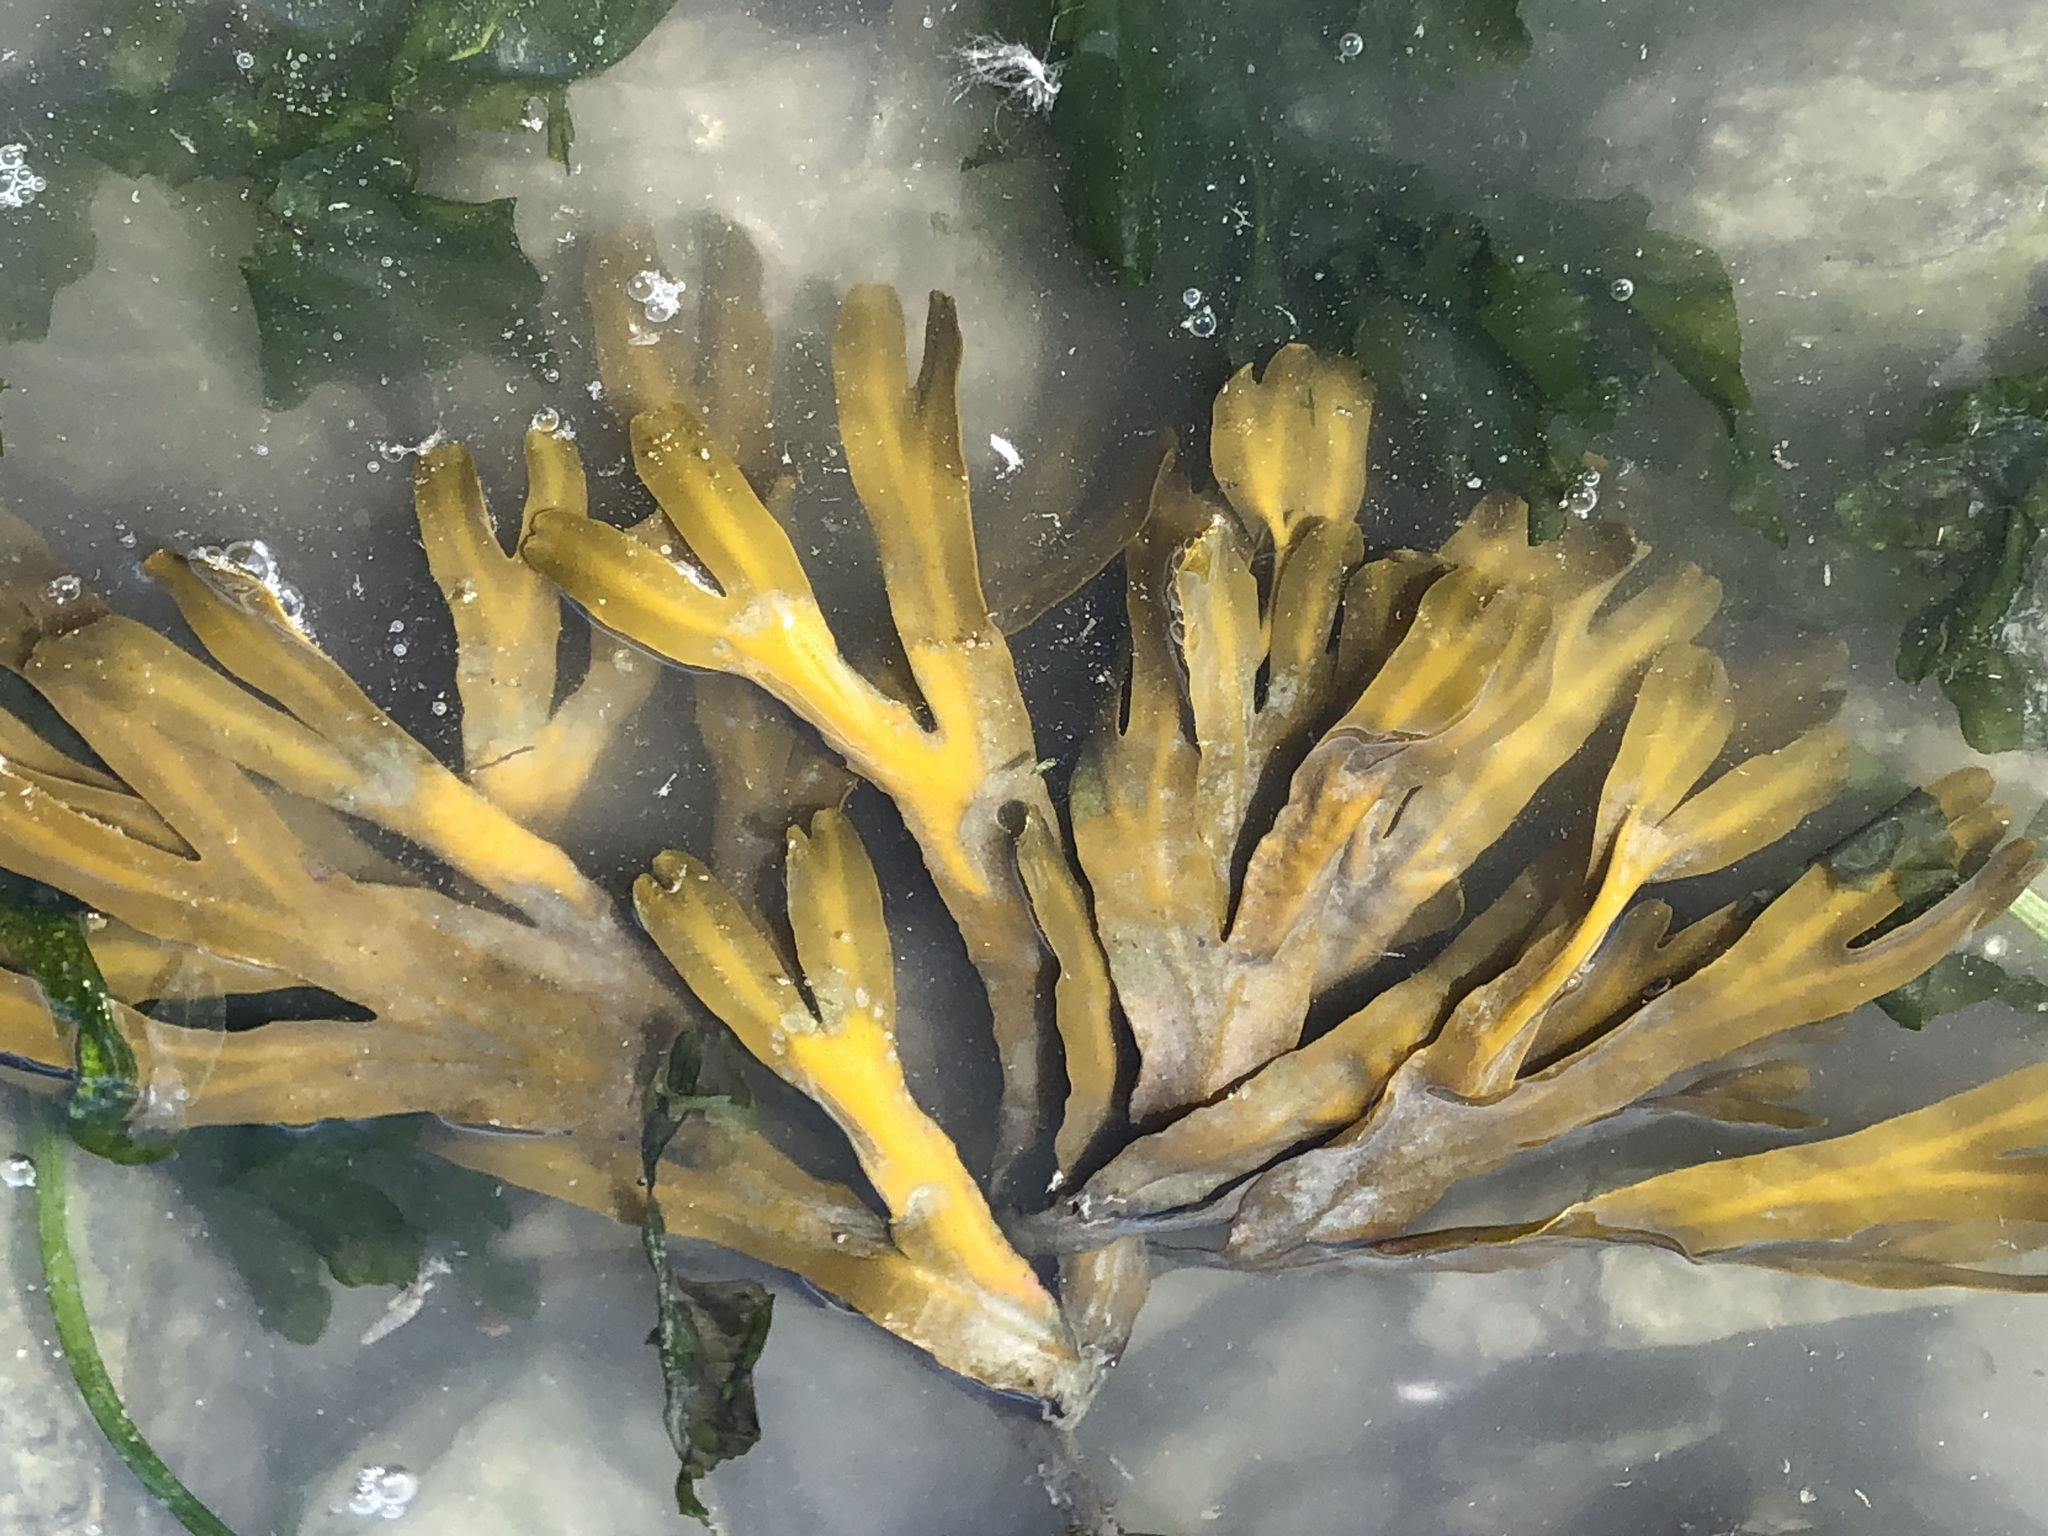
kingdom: Chromista
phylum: Ochrophyta
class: Phaeophyceae
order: Fucales
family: Fucaceae
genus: Fucus
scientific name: Fucus distichus
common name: Rockweed
